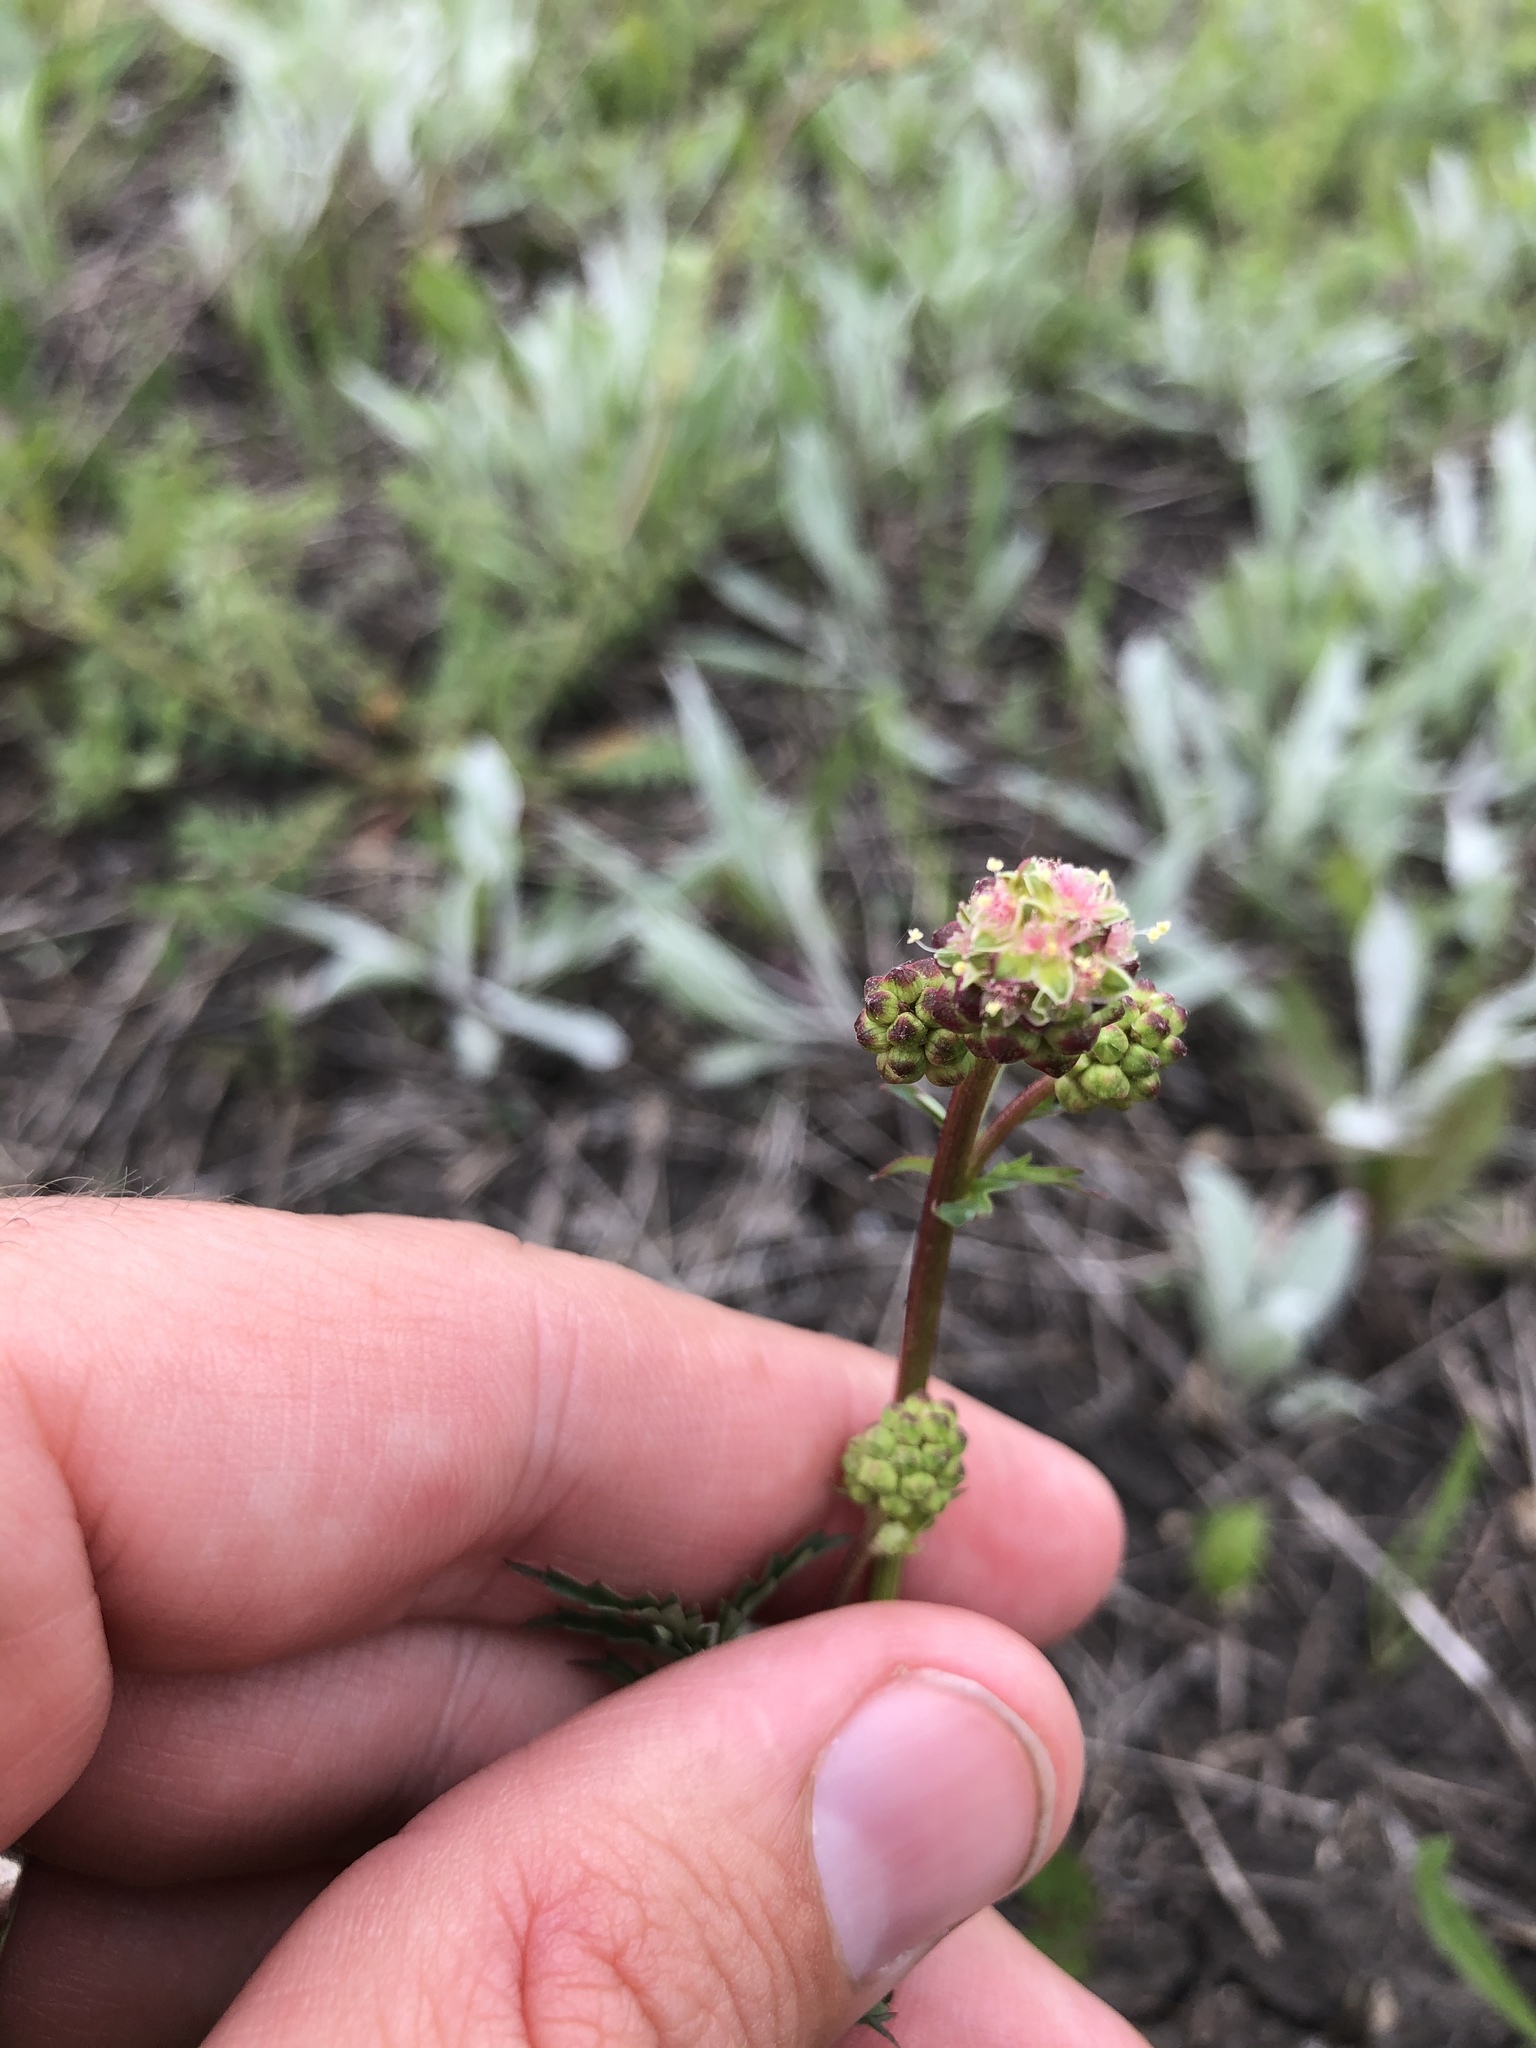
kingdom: Plantae
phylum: Tracheophyta
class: Magnoliopsida
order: Rosales
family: Rosaceae
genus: Poterium
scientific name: Poterium sanguisorba
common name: Salad burnet
